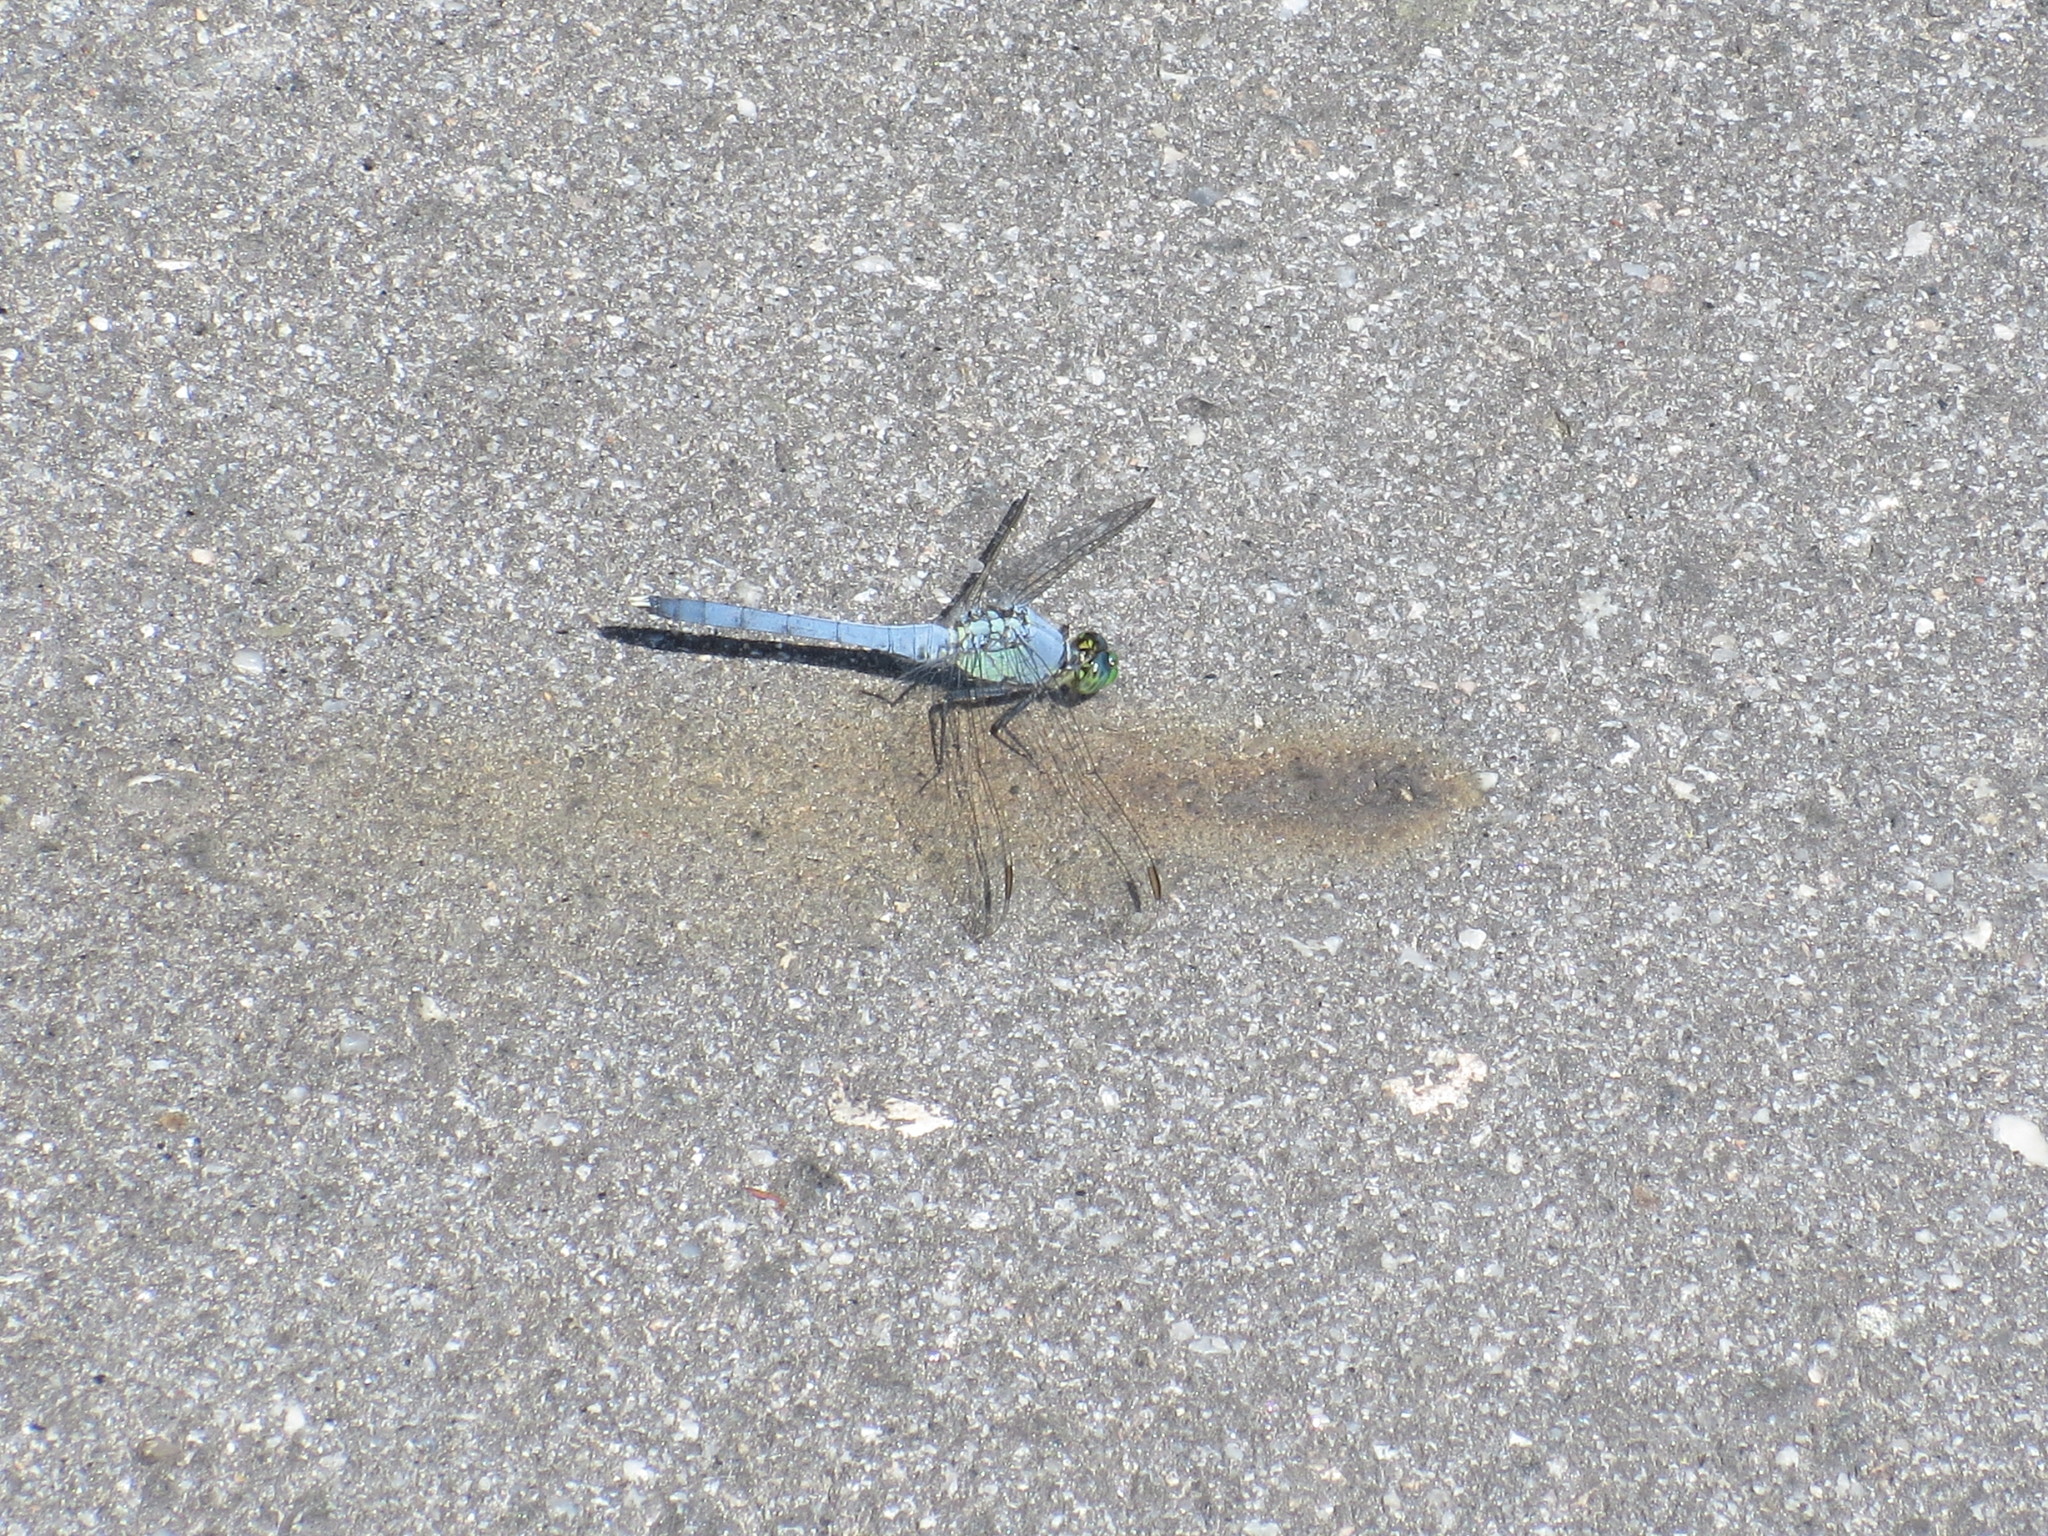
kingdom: Animalia
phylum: Arthropoda
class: Insecta
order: Odonata
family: Libellulidae
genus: Erythemis
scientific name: Erythemis simplicicollis
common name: Eastern pondhawk
